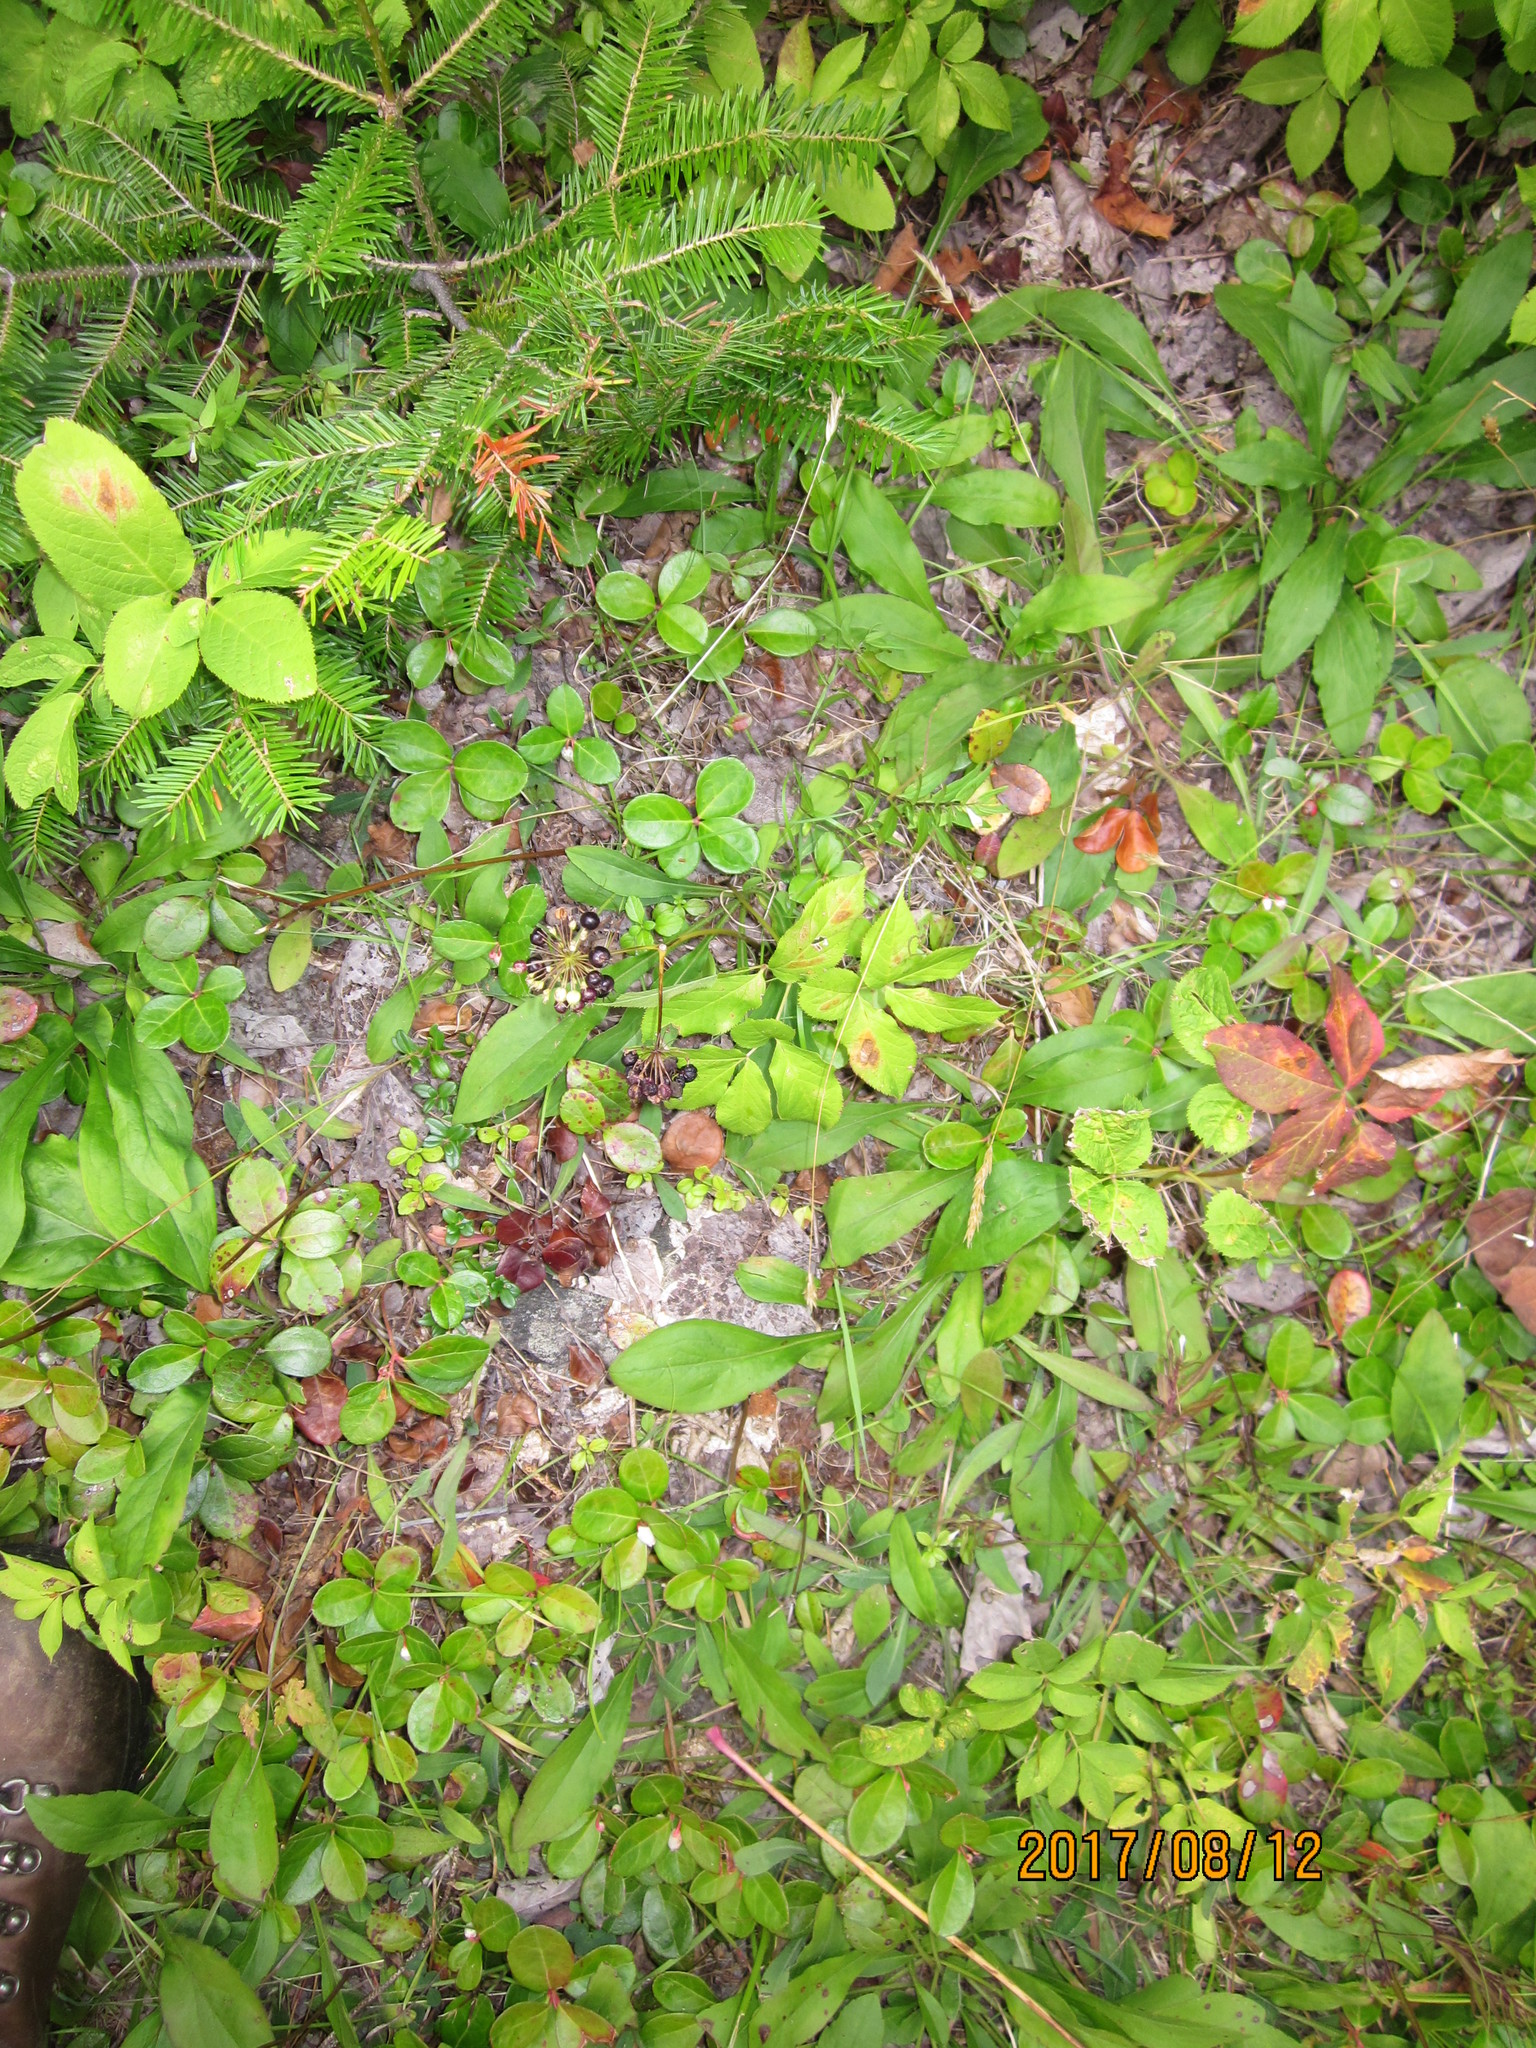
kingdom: Plantae
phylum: Tracheophyta
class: Magnoliopsida
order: Apiales
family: Araliaceae
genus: Aralia
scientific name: Aralia nudicaulis
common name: Wild sarsaparilla
